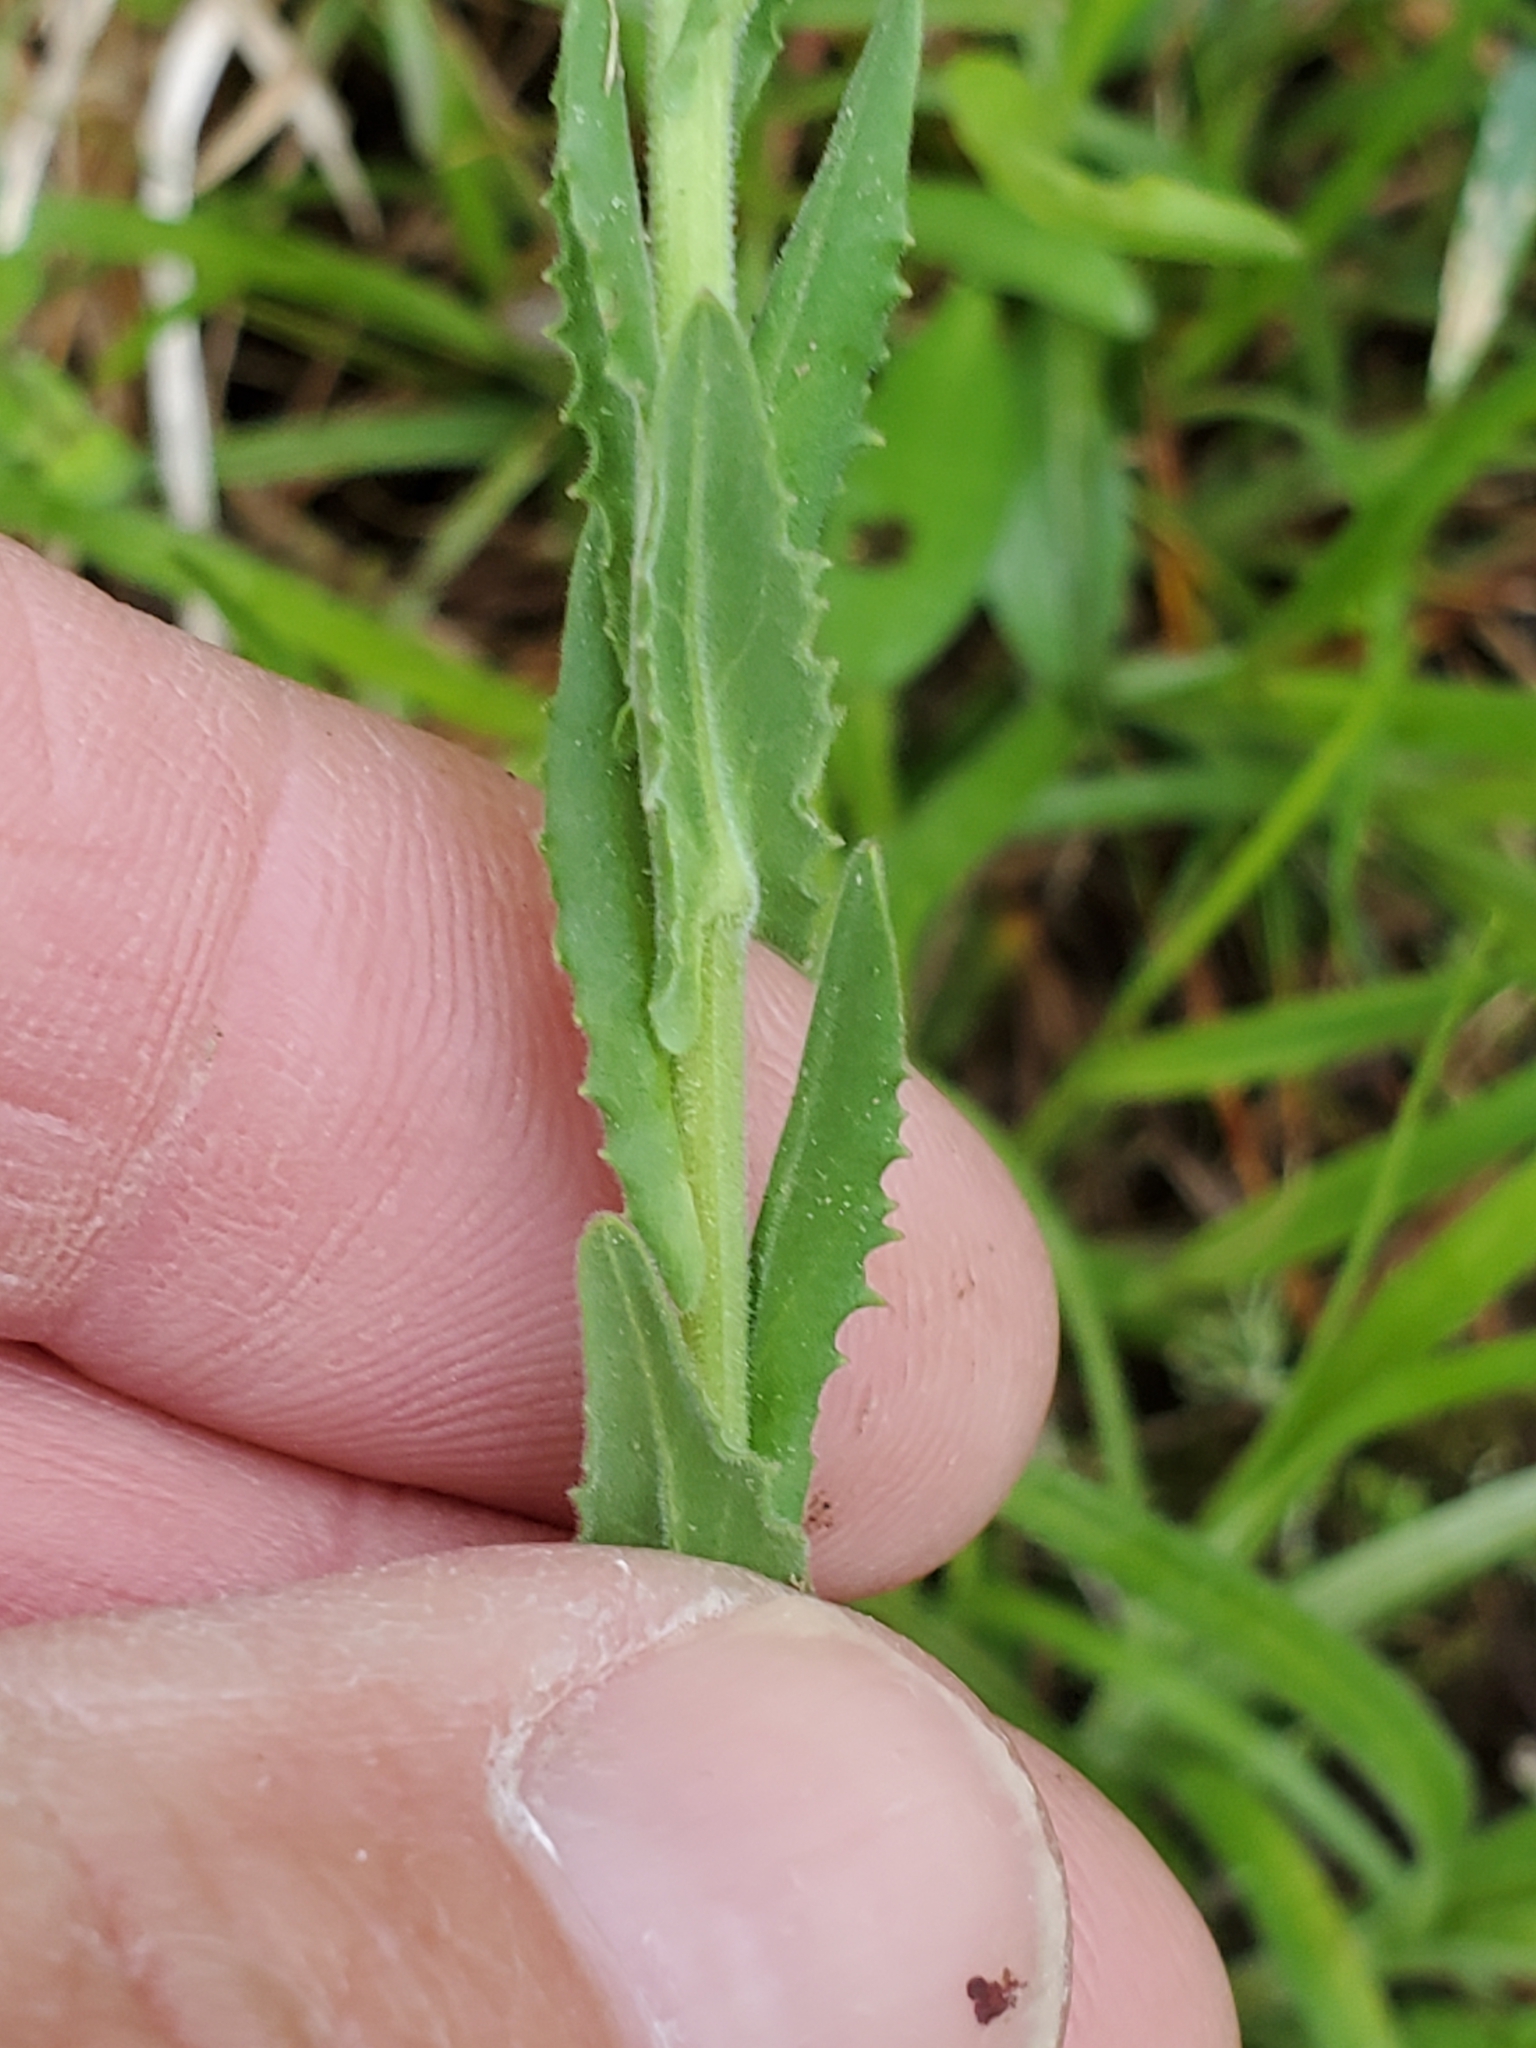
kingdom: Plantae
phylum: Tracheophyta
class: Magnoliopsida
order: Brassicales
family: Brassicaceae
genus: Lepidium
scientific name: Lepidium campestre
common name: Field pepperwort
